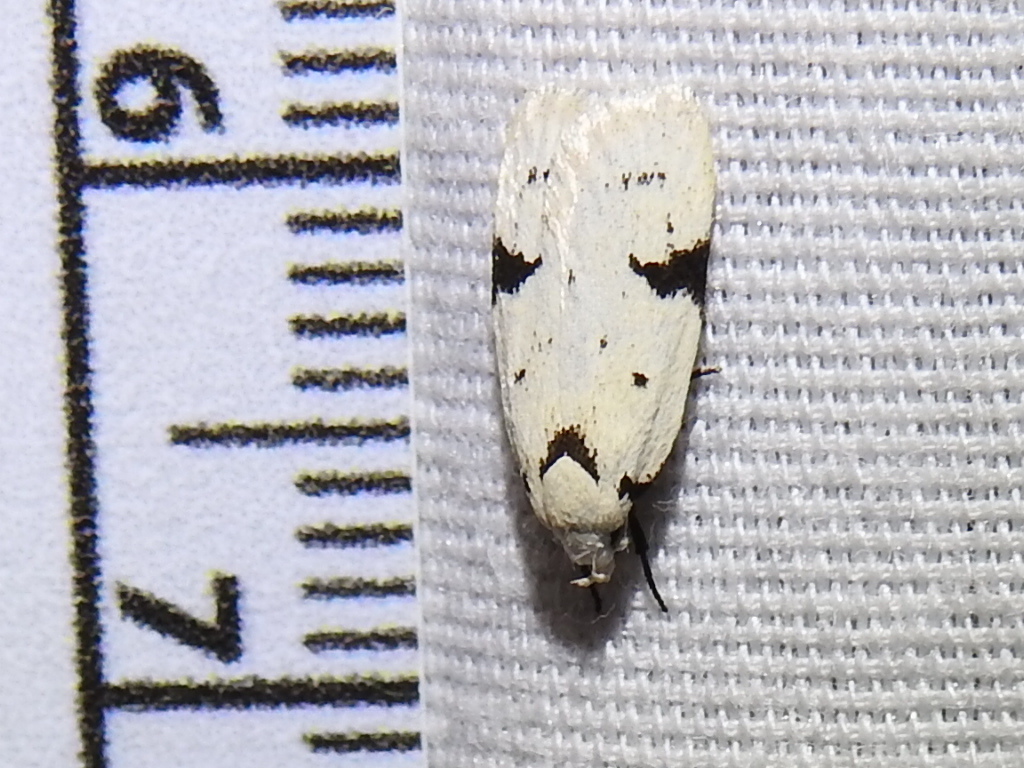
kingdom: Animalia
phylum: Arthropoda
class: Insecta
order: Lepidoptera
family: Oecophoridae
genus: Inga
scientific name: Inga sparsiciliella
